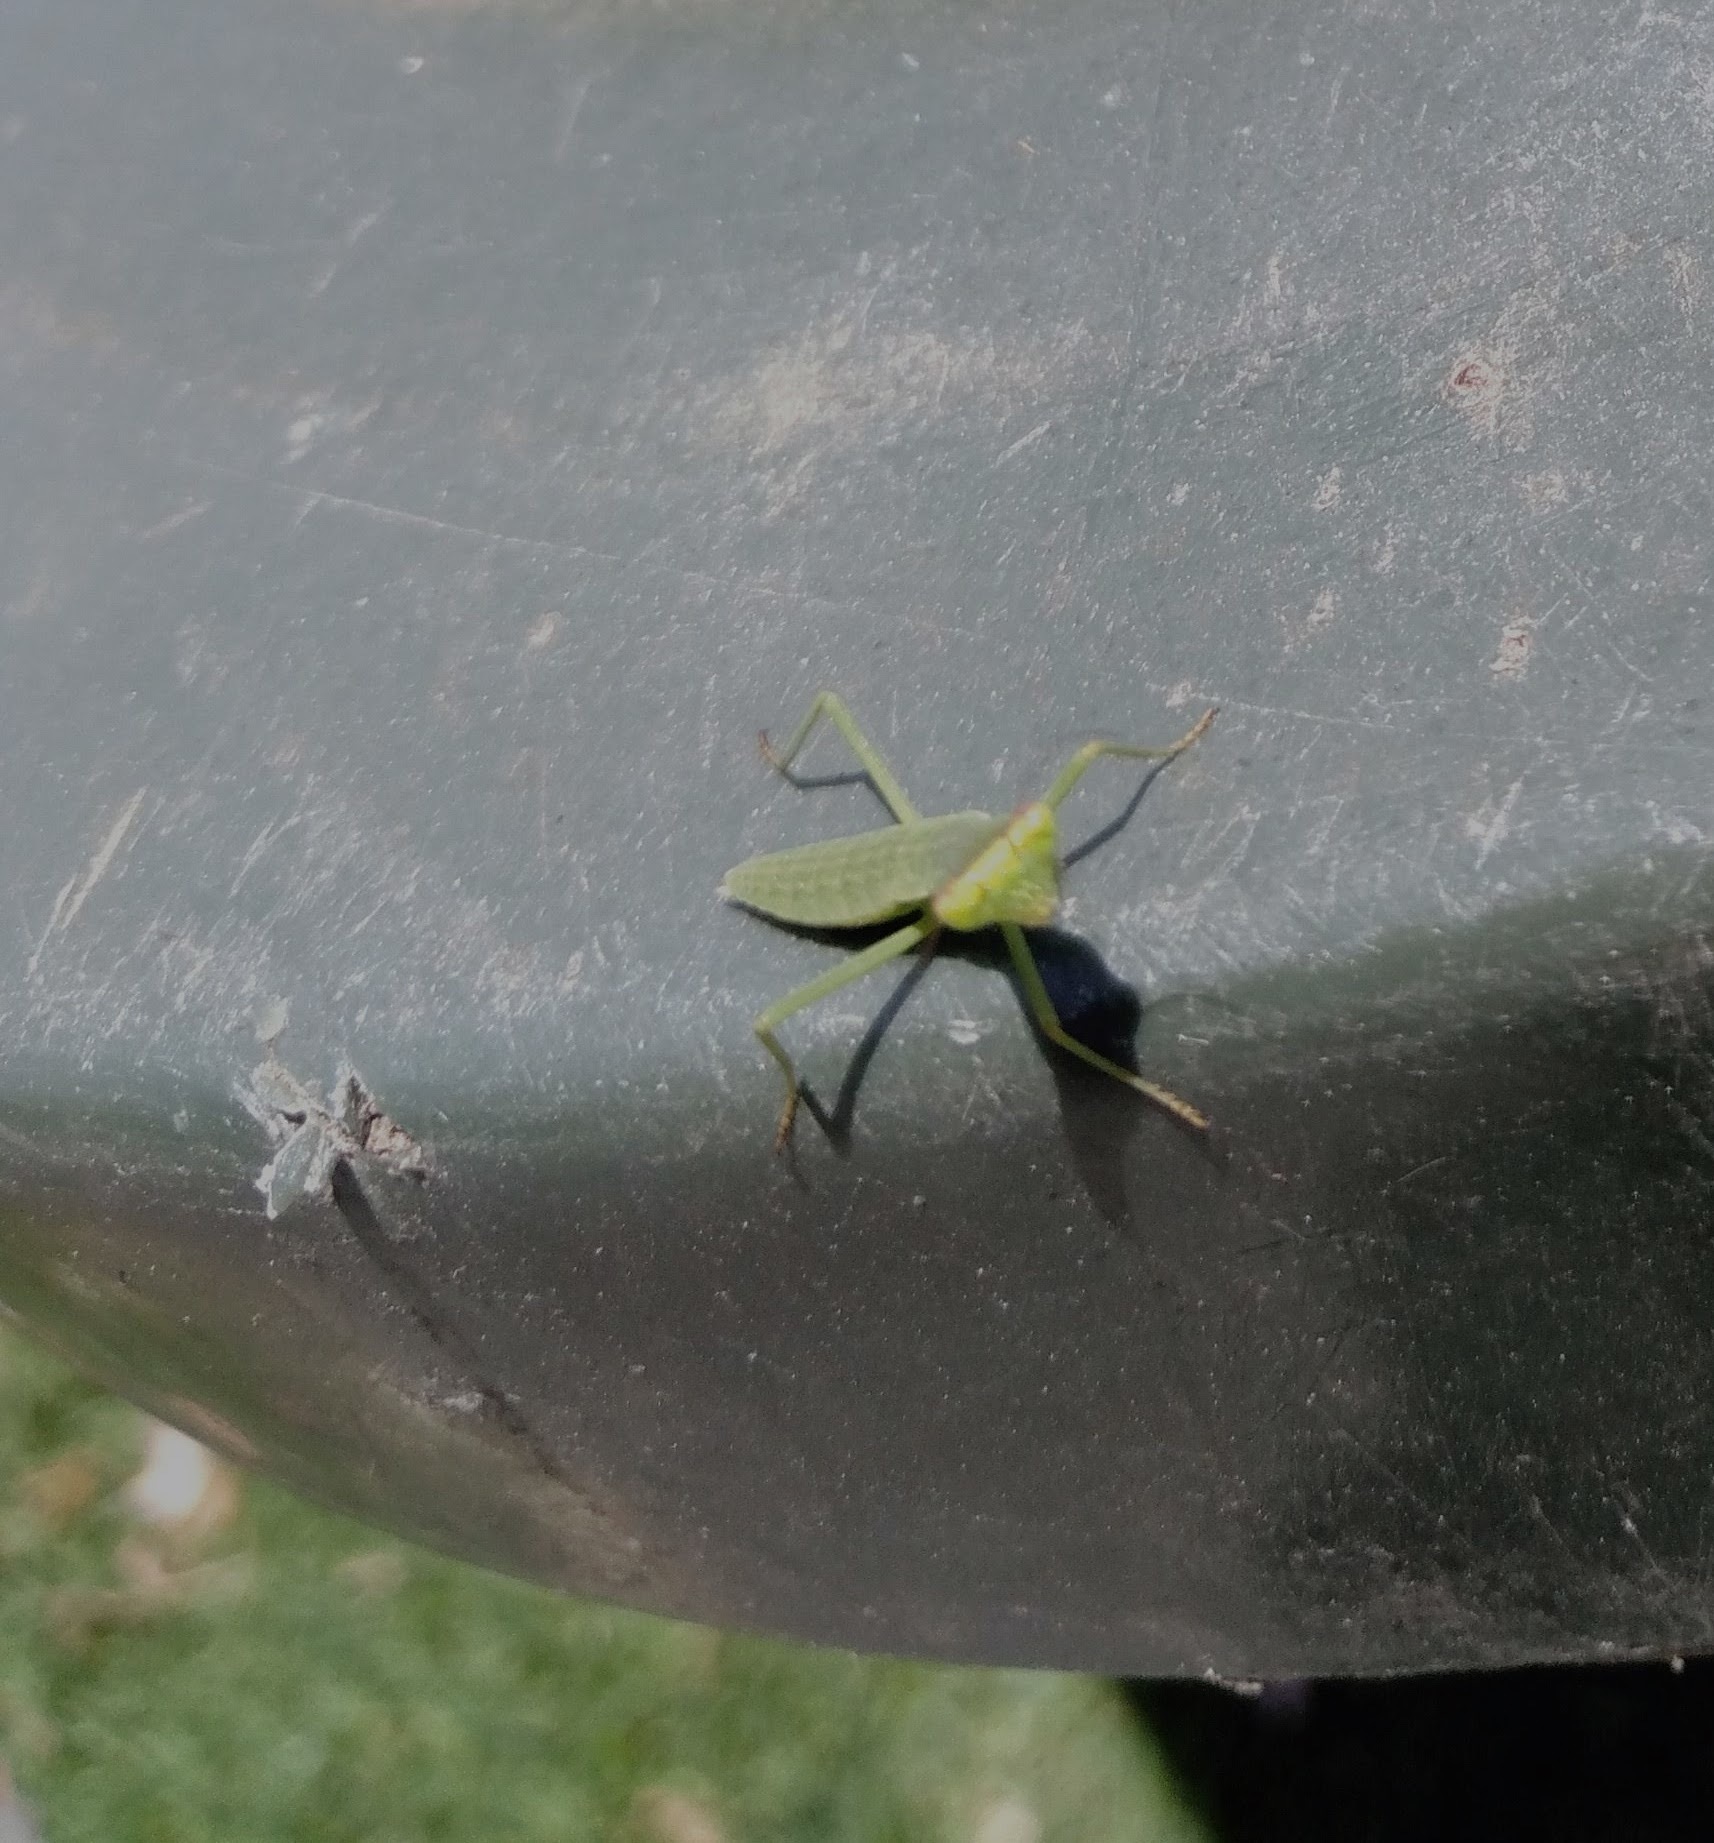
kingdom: Animalia
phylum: Arthropoda
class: Insecta
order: Mantodea
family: Mantidae
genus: Orthodera
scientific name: Orthodera ministralis
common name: Mantis
